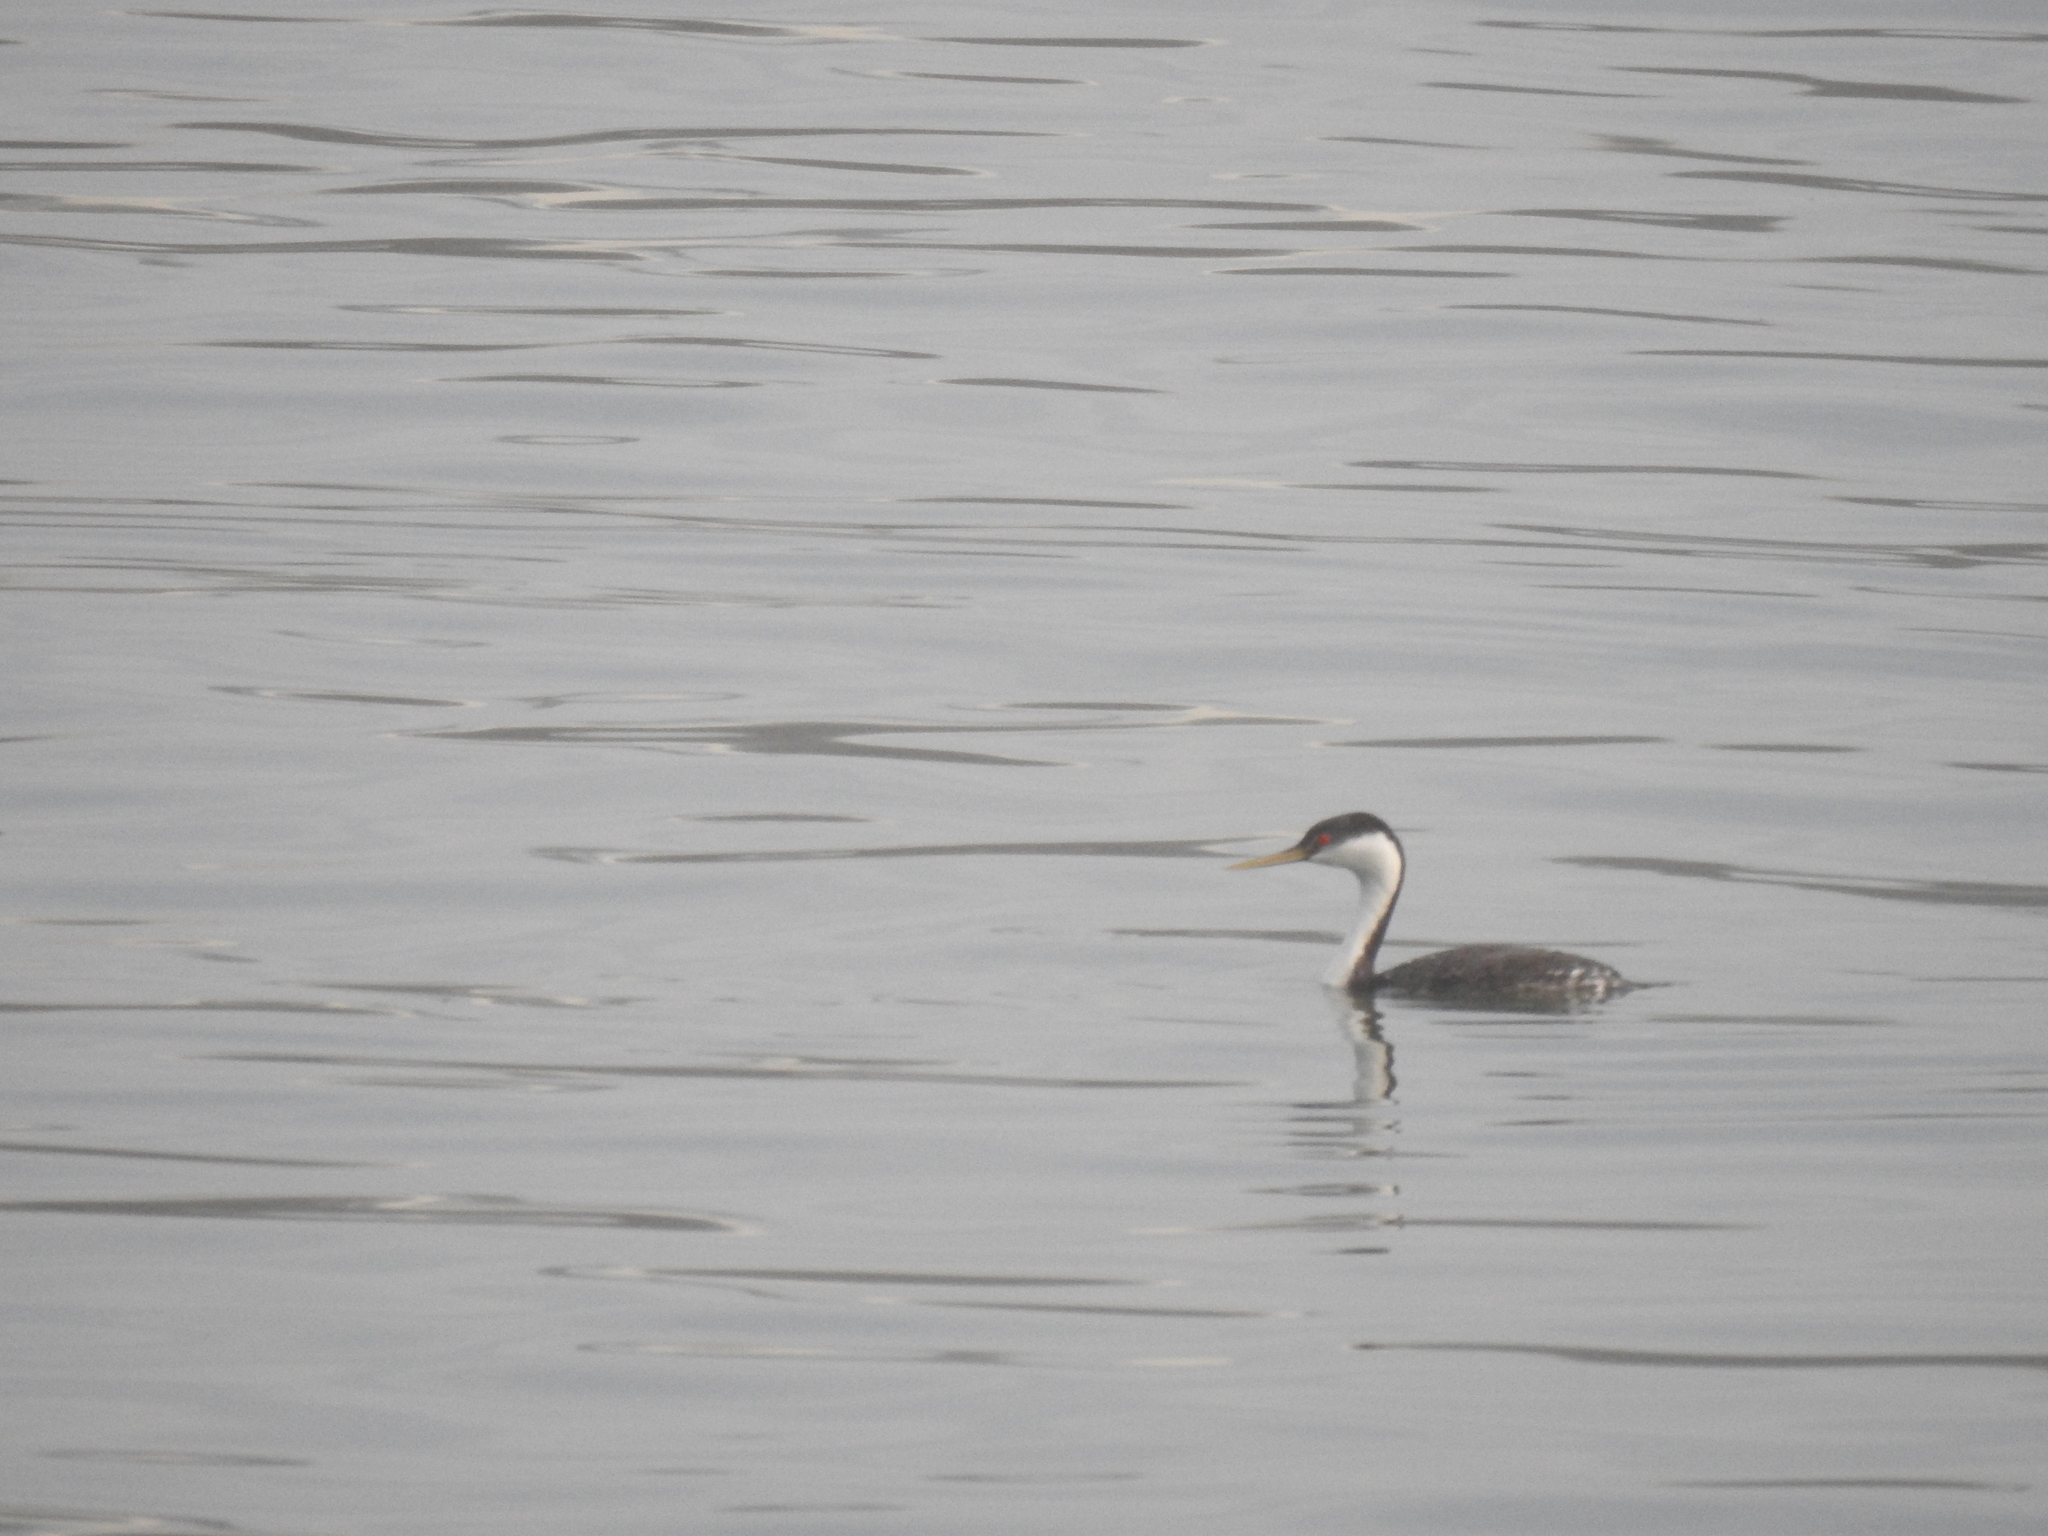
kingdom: Animalia
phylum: Chordata
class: Aves
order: Podicipediformes
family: Podicipedidae
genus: Aechmophorus
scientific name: Aechmophorus occidentalis
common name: Western grebe
